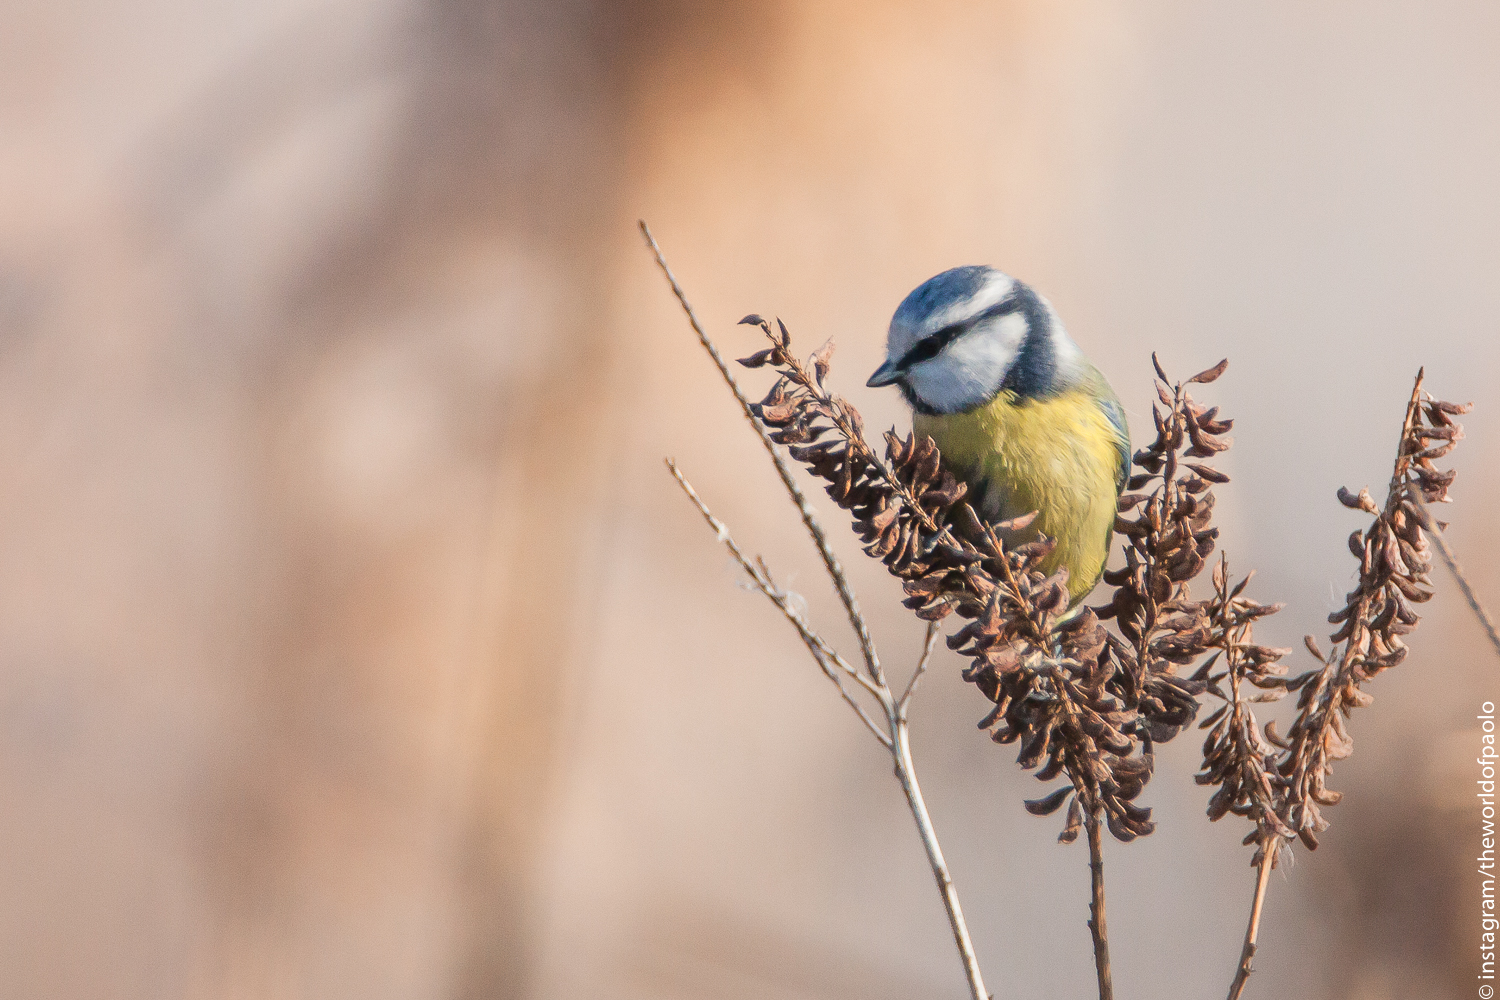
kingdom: Animalia
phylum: Chordata
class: Aves
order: Passeriformes
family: Paridae
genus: Cyanistes
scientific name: Cyanistes caeruleus
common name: Eurasian blue tit
